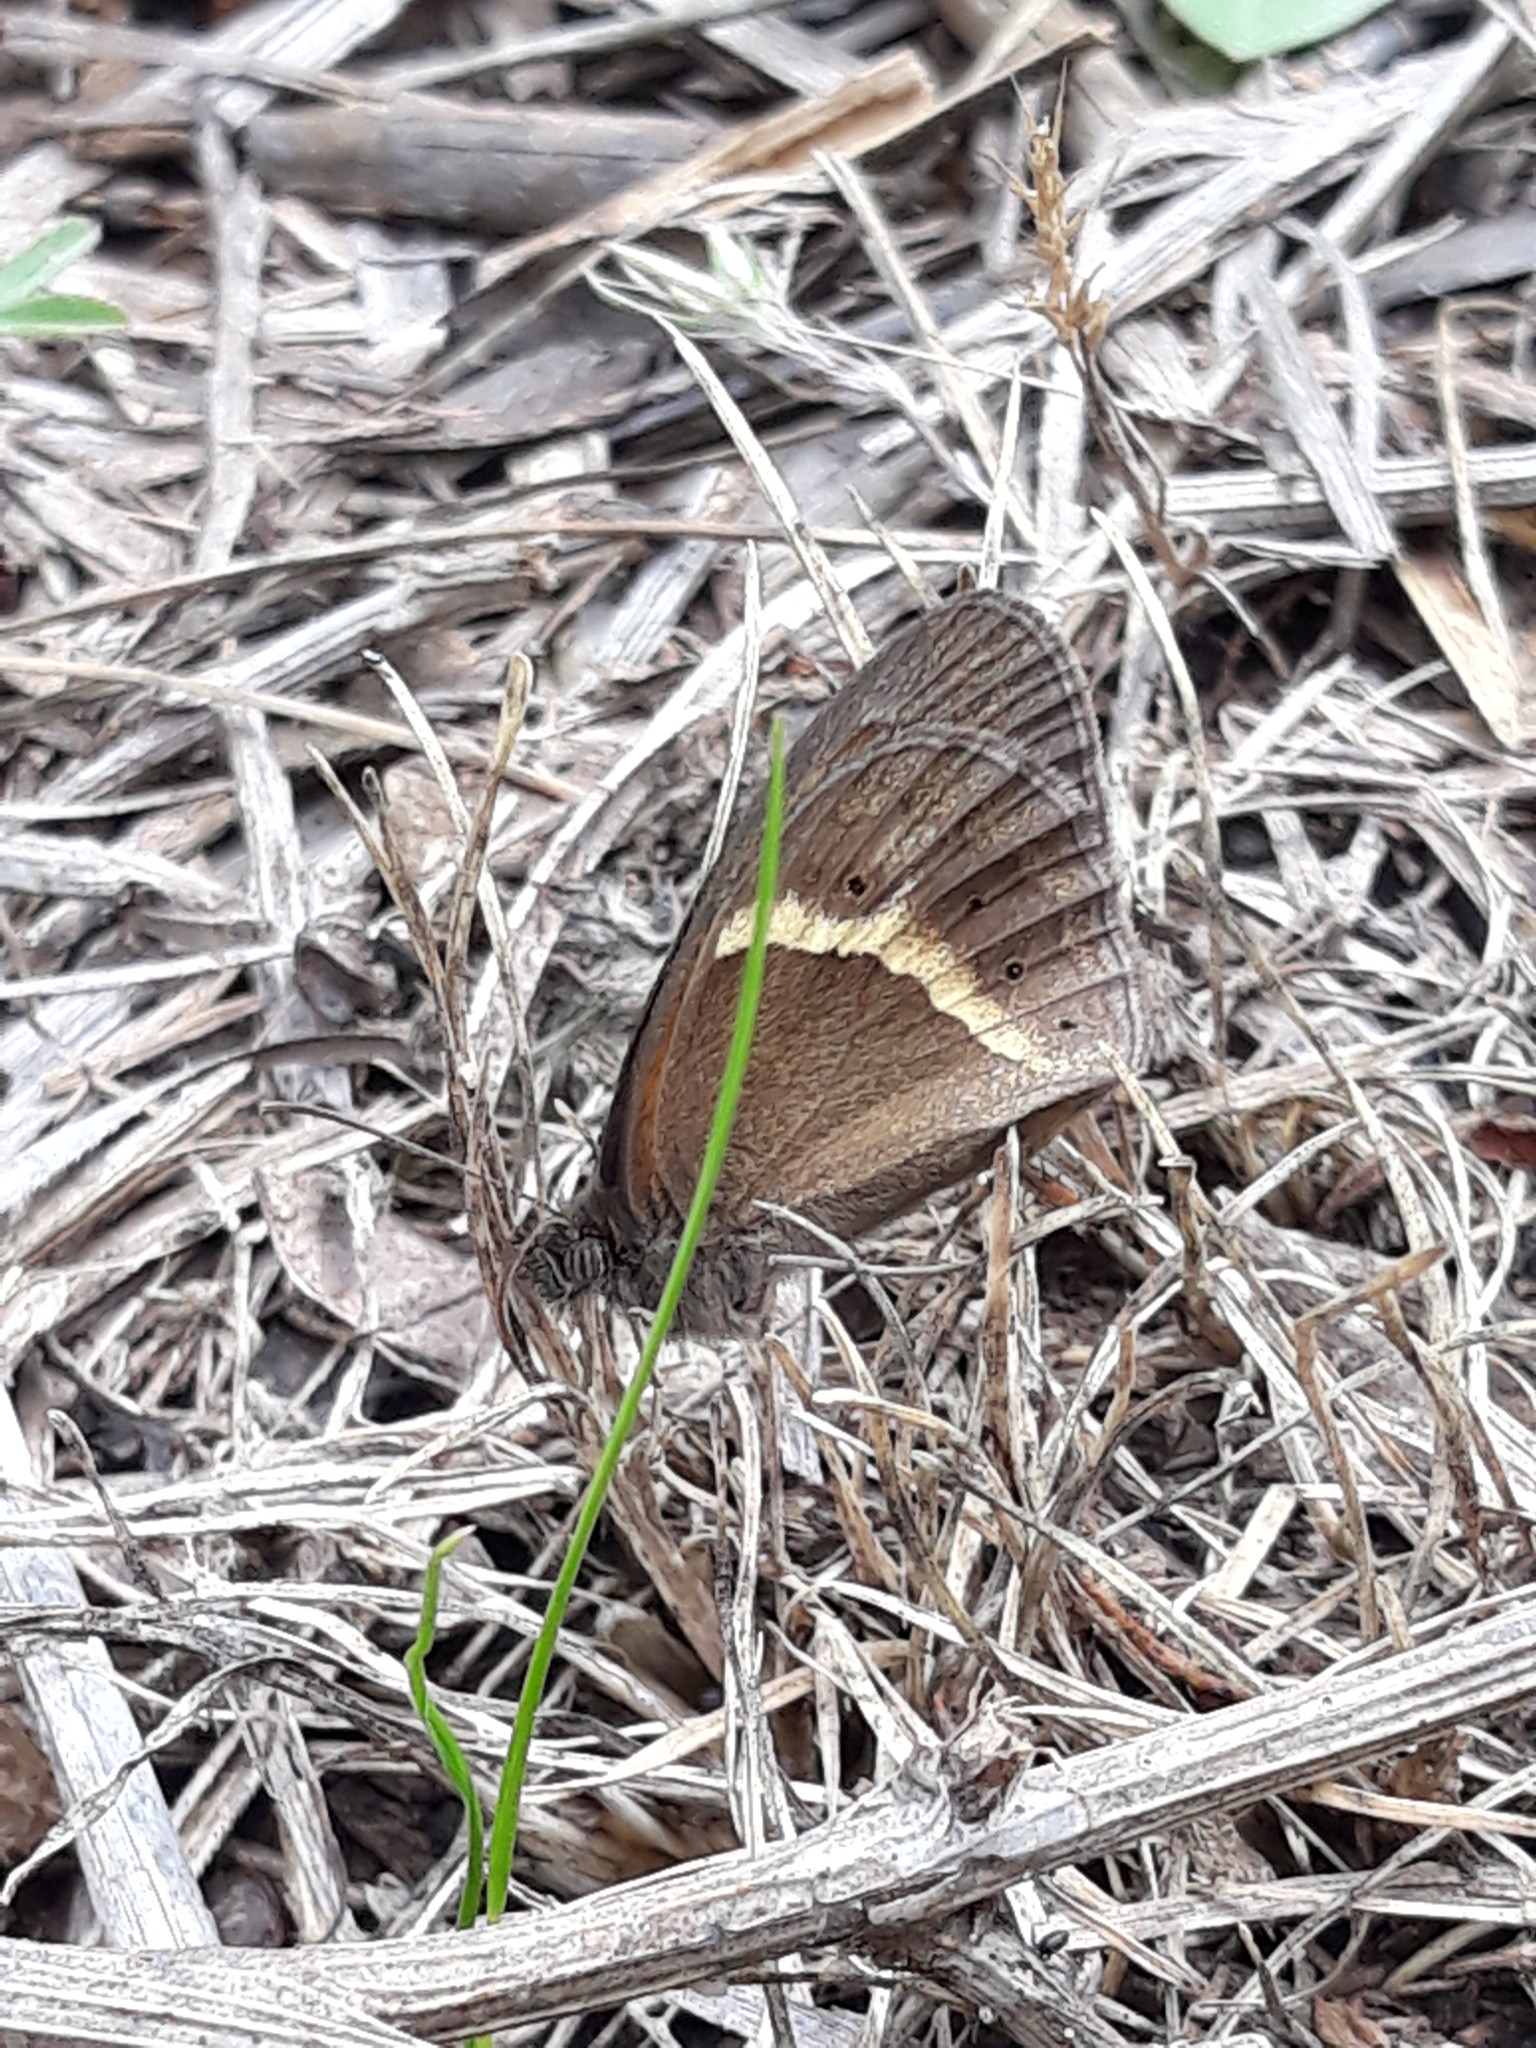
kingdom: Animalia
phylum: Arthropoda
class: Insecta
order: Lepidoptera
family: Nymphalidae
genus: Pyronia
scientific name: Pyronia bathseba
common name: Spanish gatekeeper
